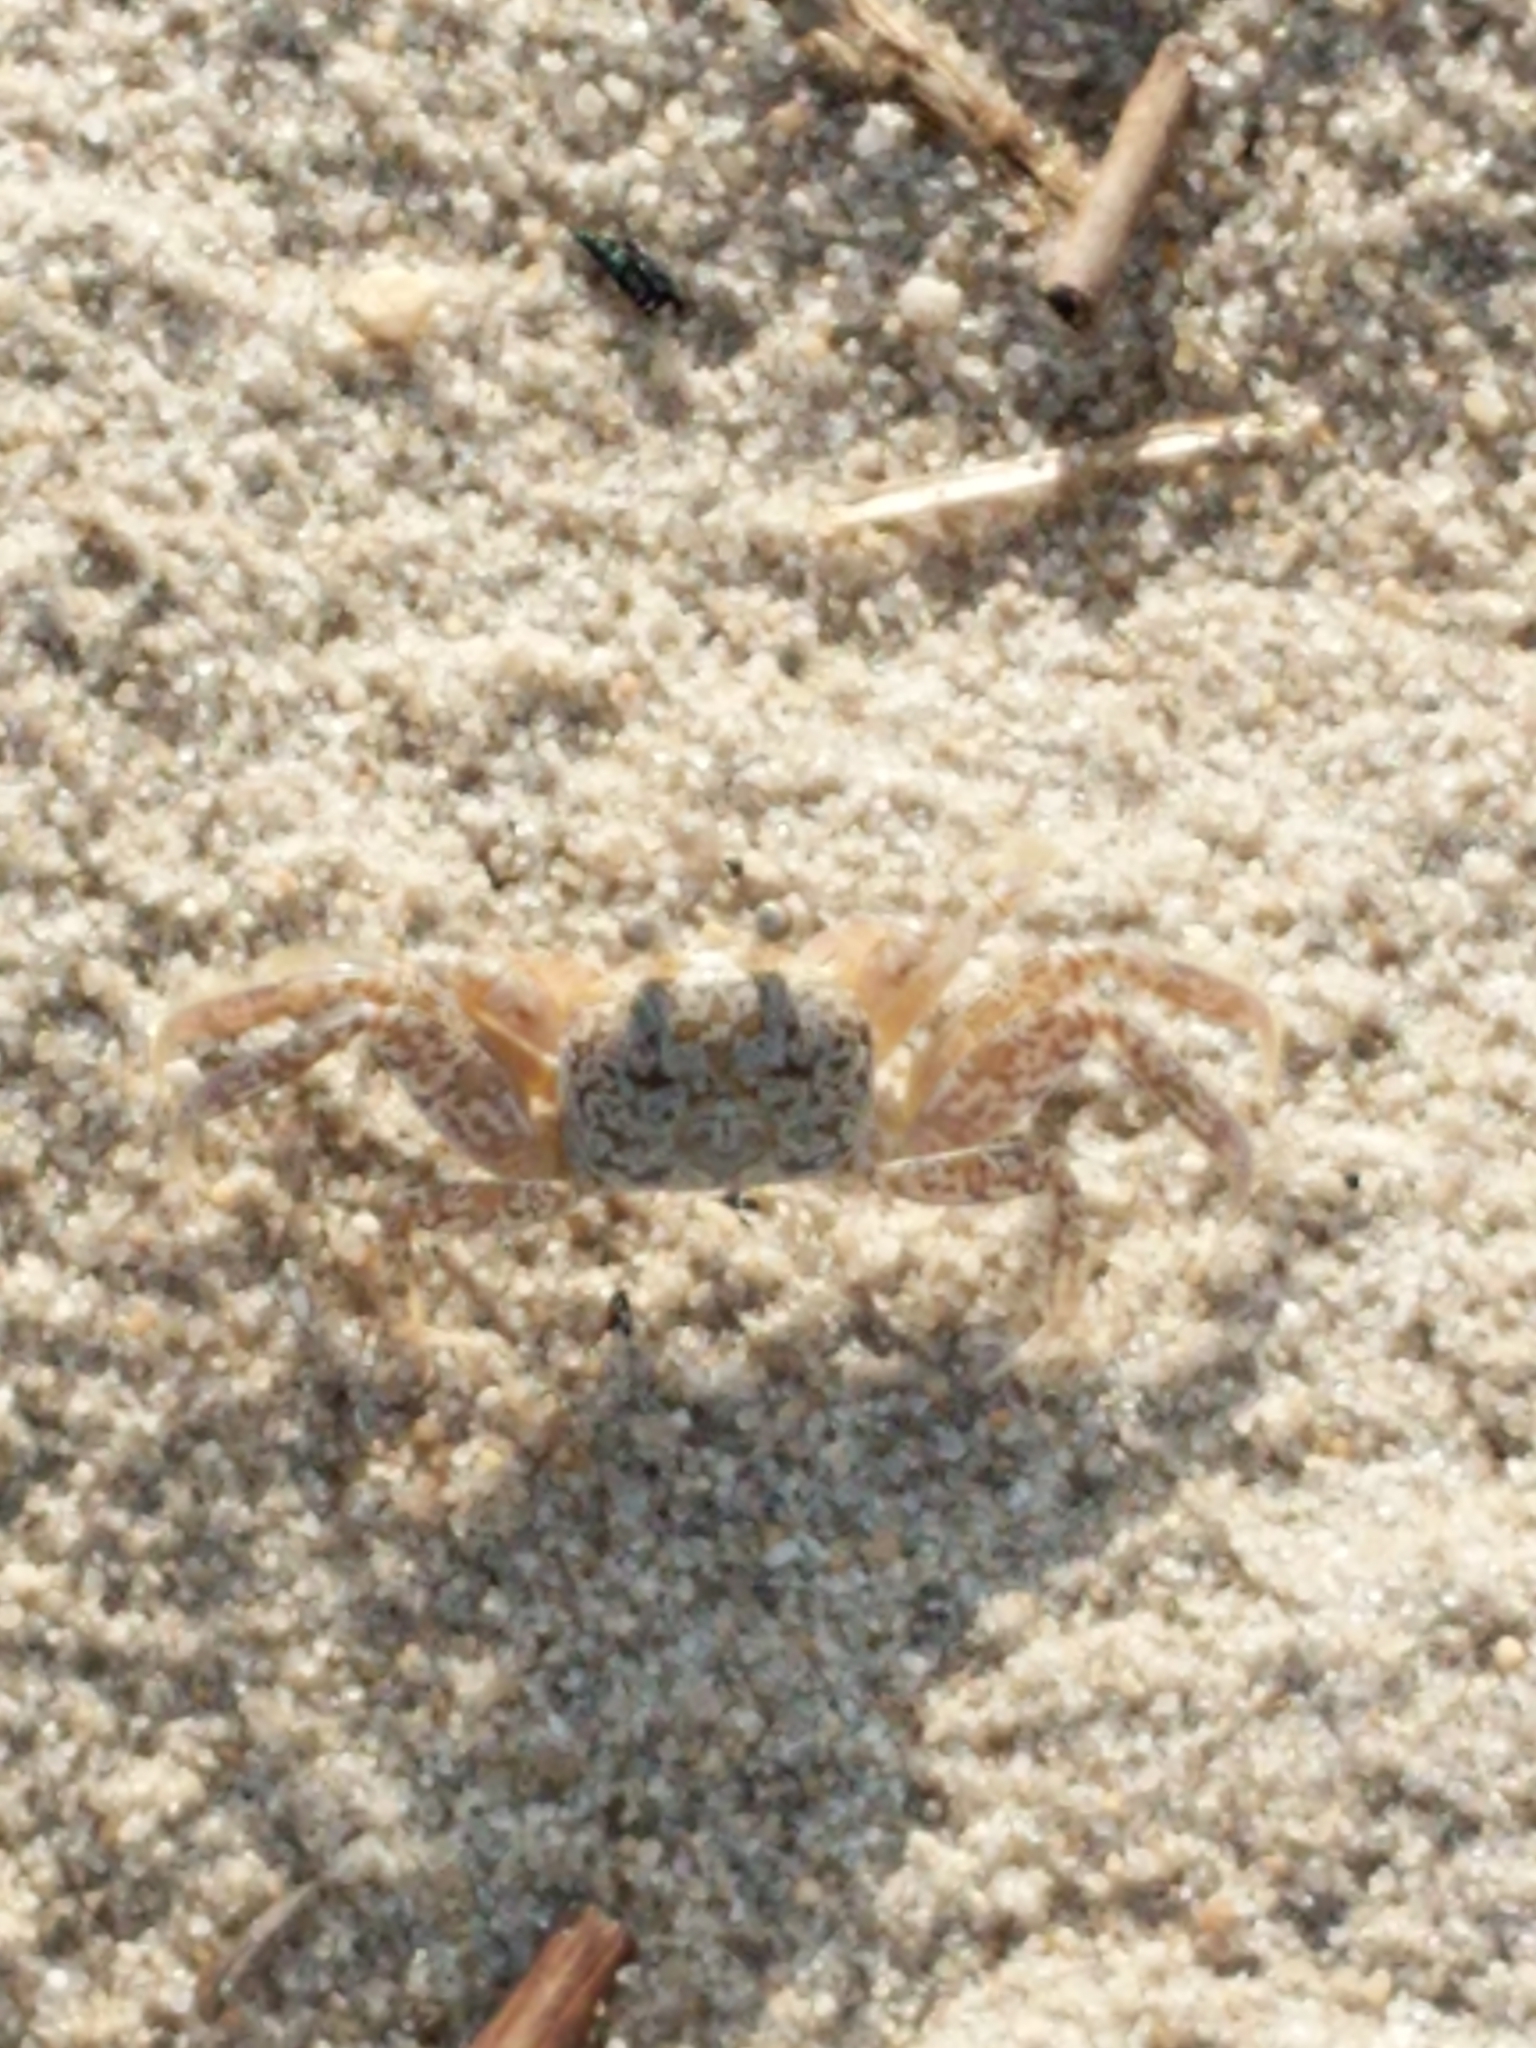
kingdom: Animalia
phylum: Arthropoda
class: Malacostraca
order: Decapoda
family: Ocypodidae
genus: Ocypode
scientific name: Ocypode quadrata
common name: Ghost crab
